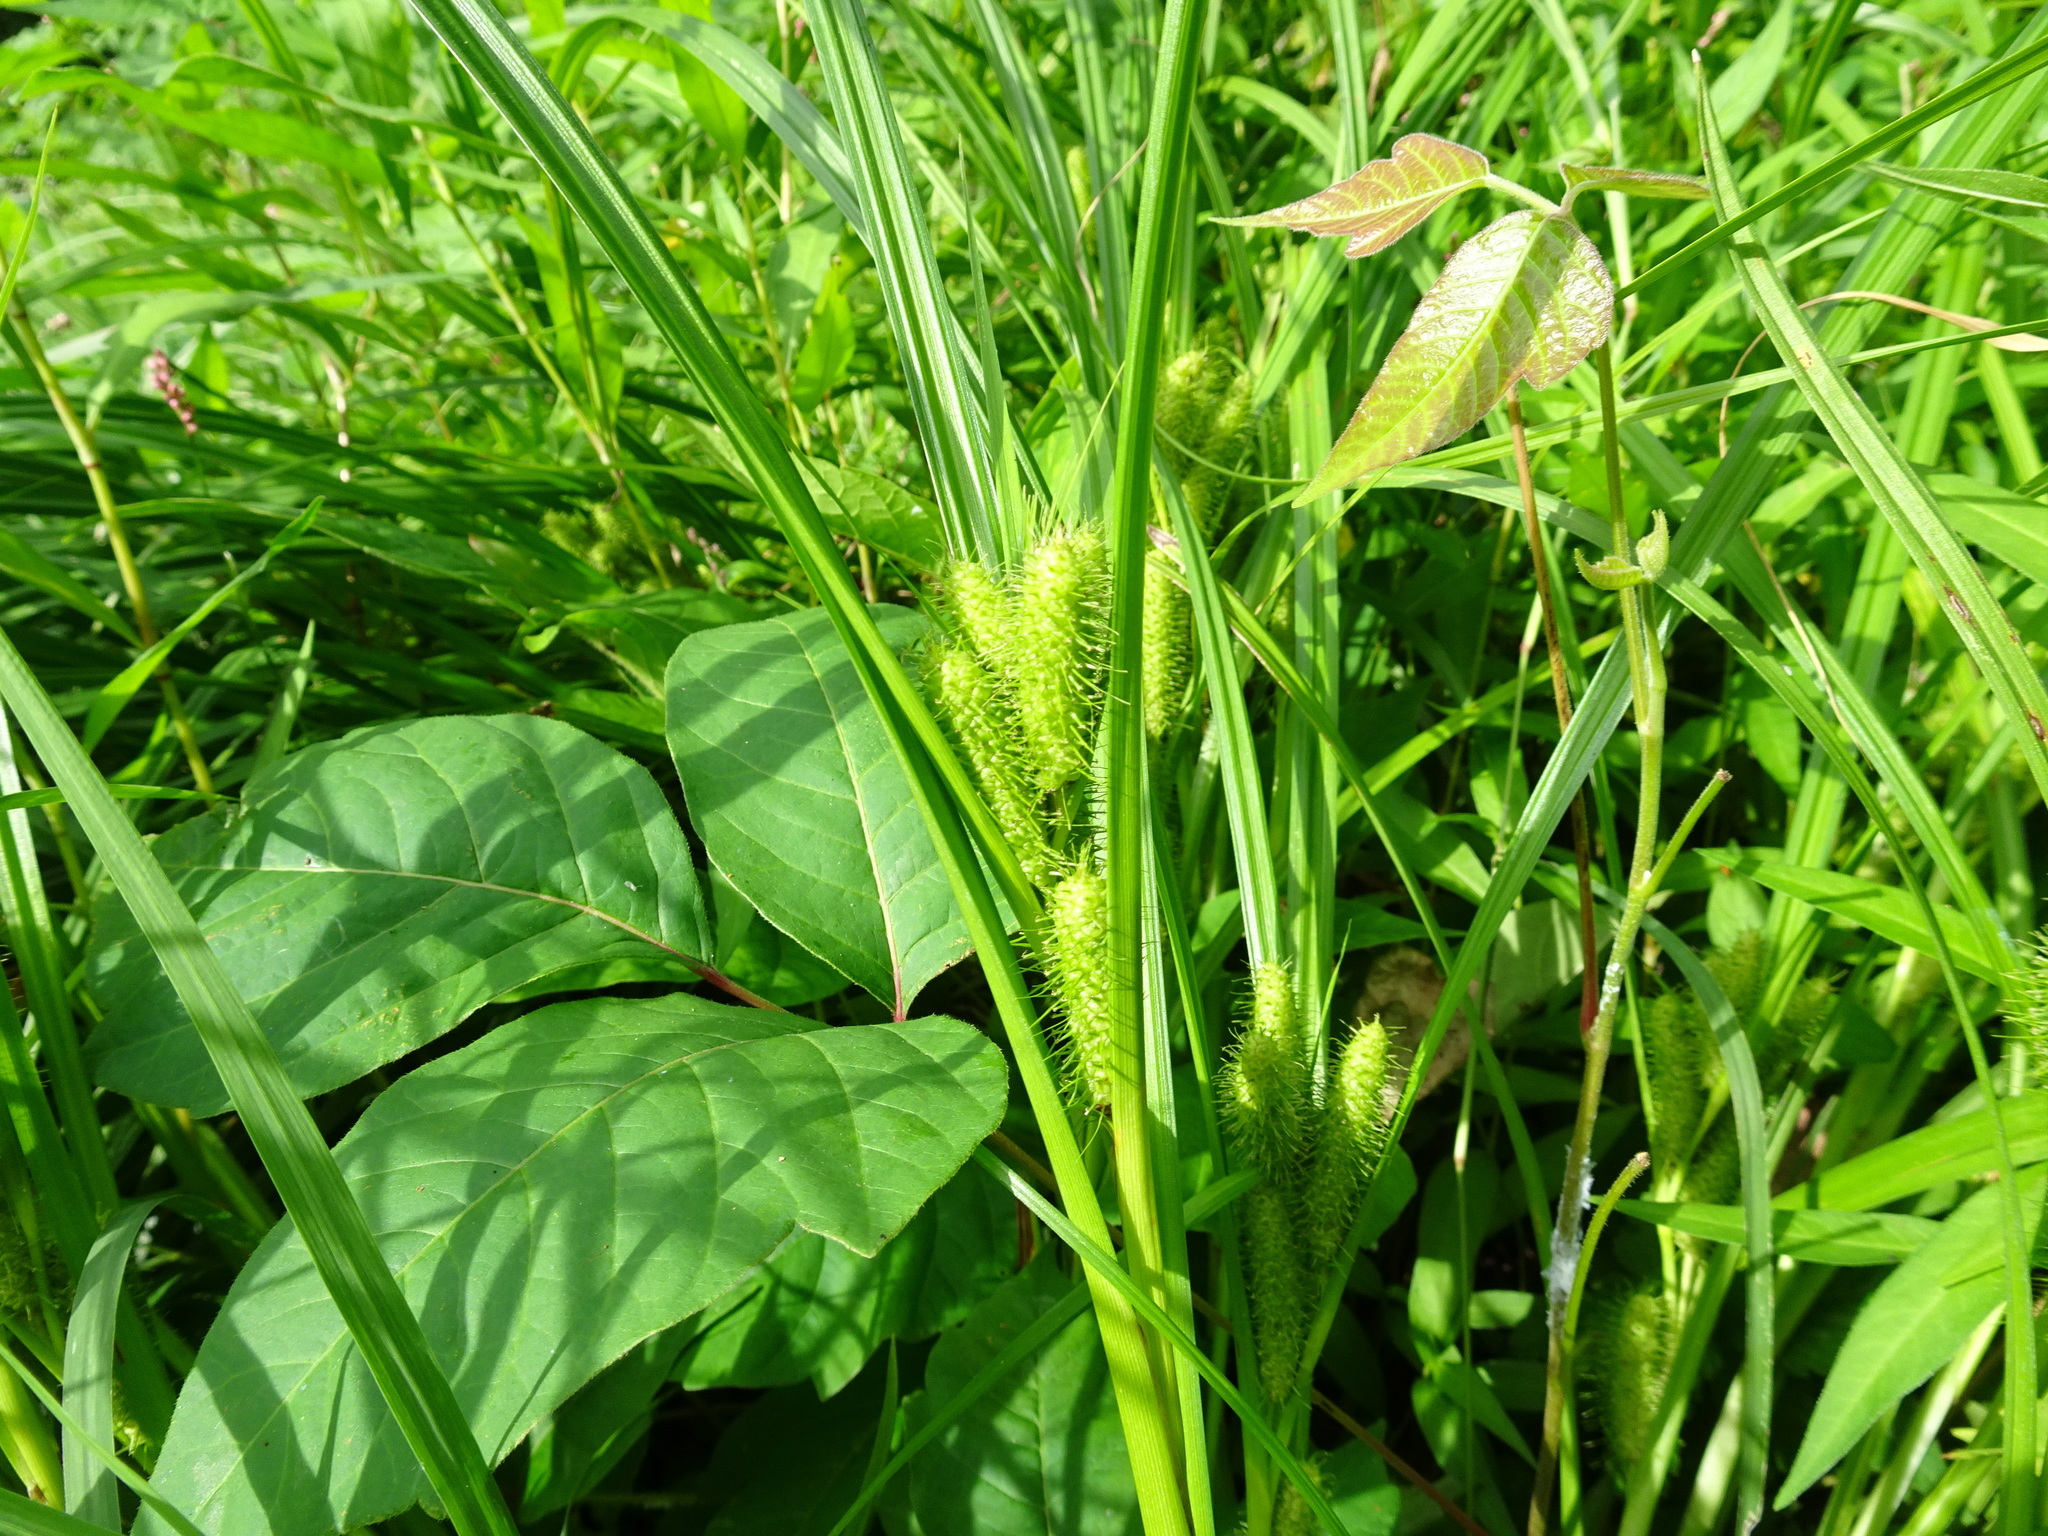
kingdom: Plantae
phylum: Tracheophyta
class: Liliopsida
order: Poales
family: Cyperaceae
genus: Carex
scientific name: Carex frankii
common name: Frank's sedge
